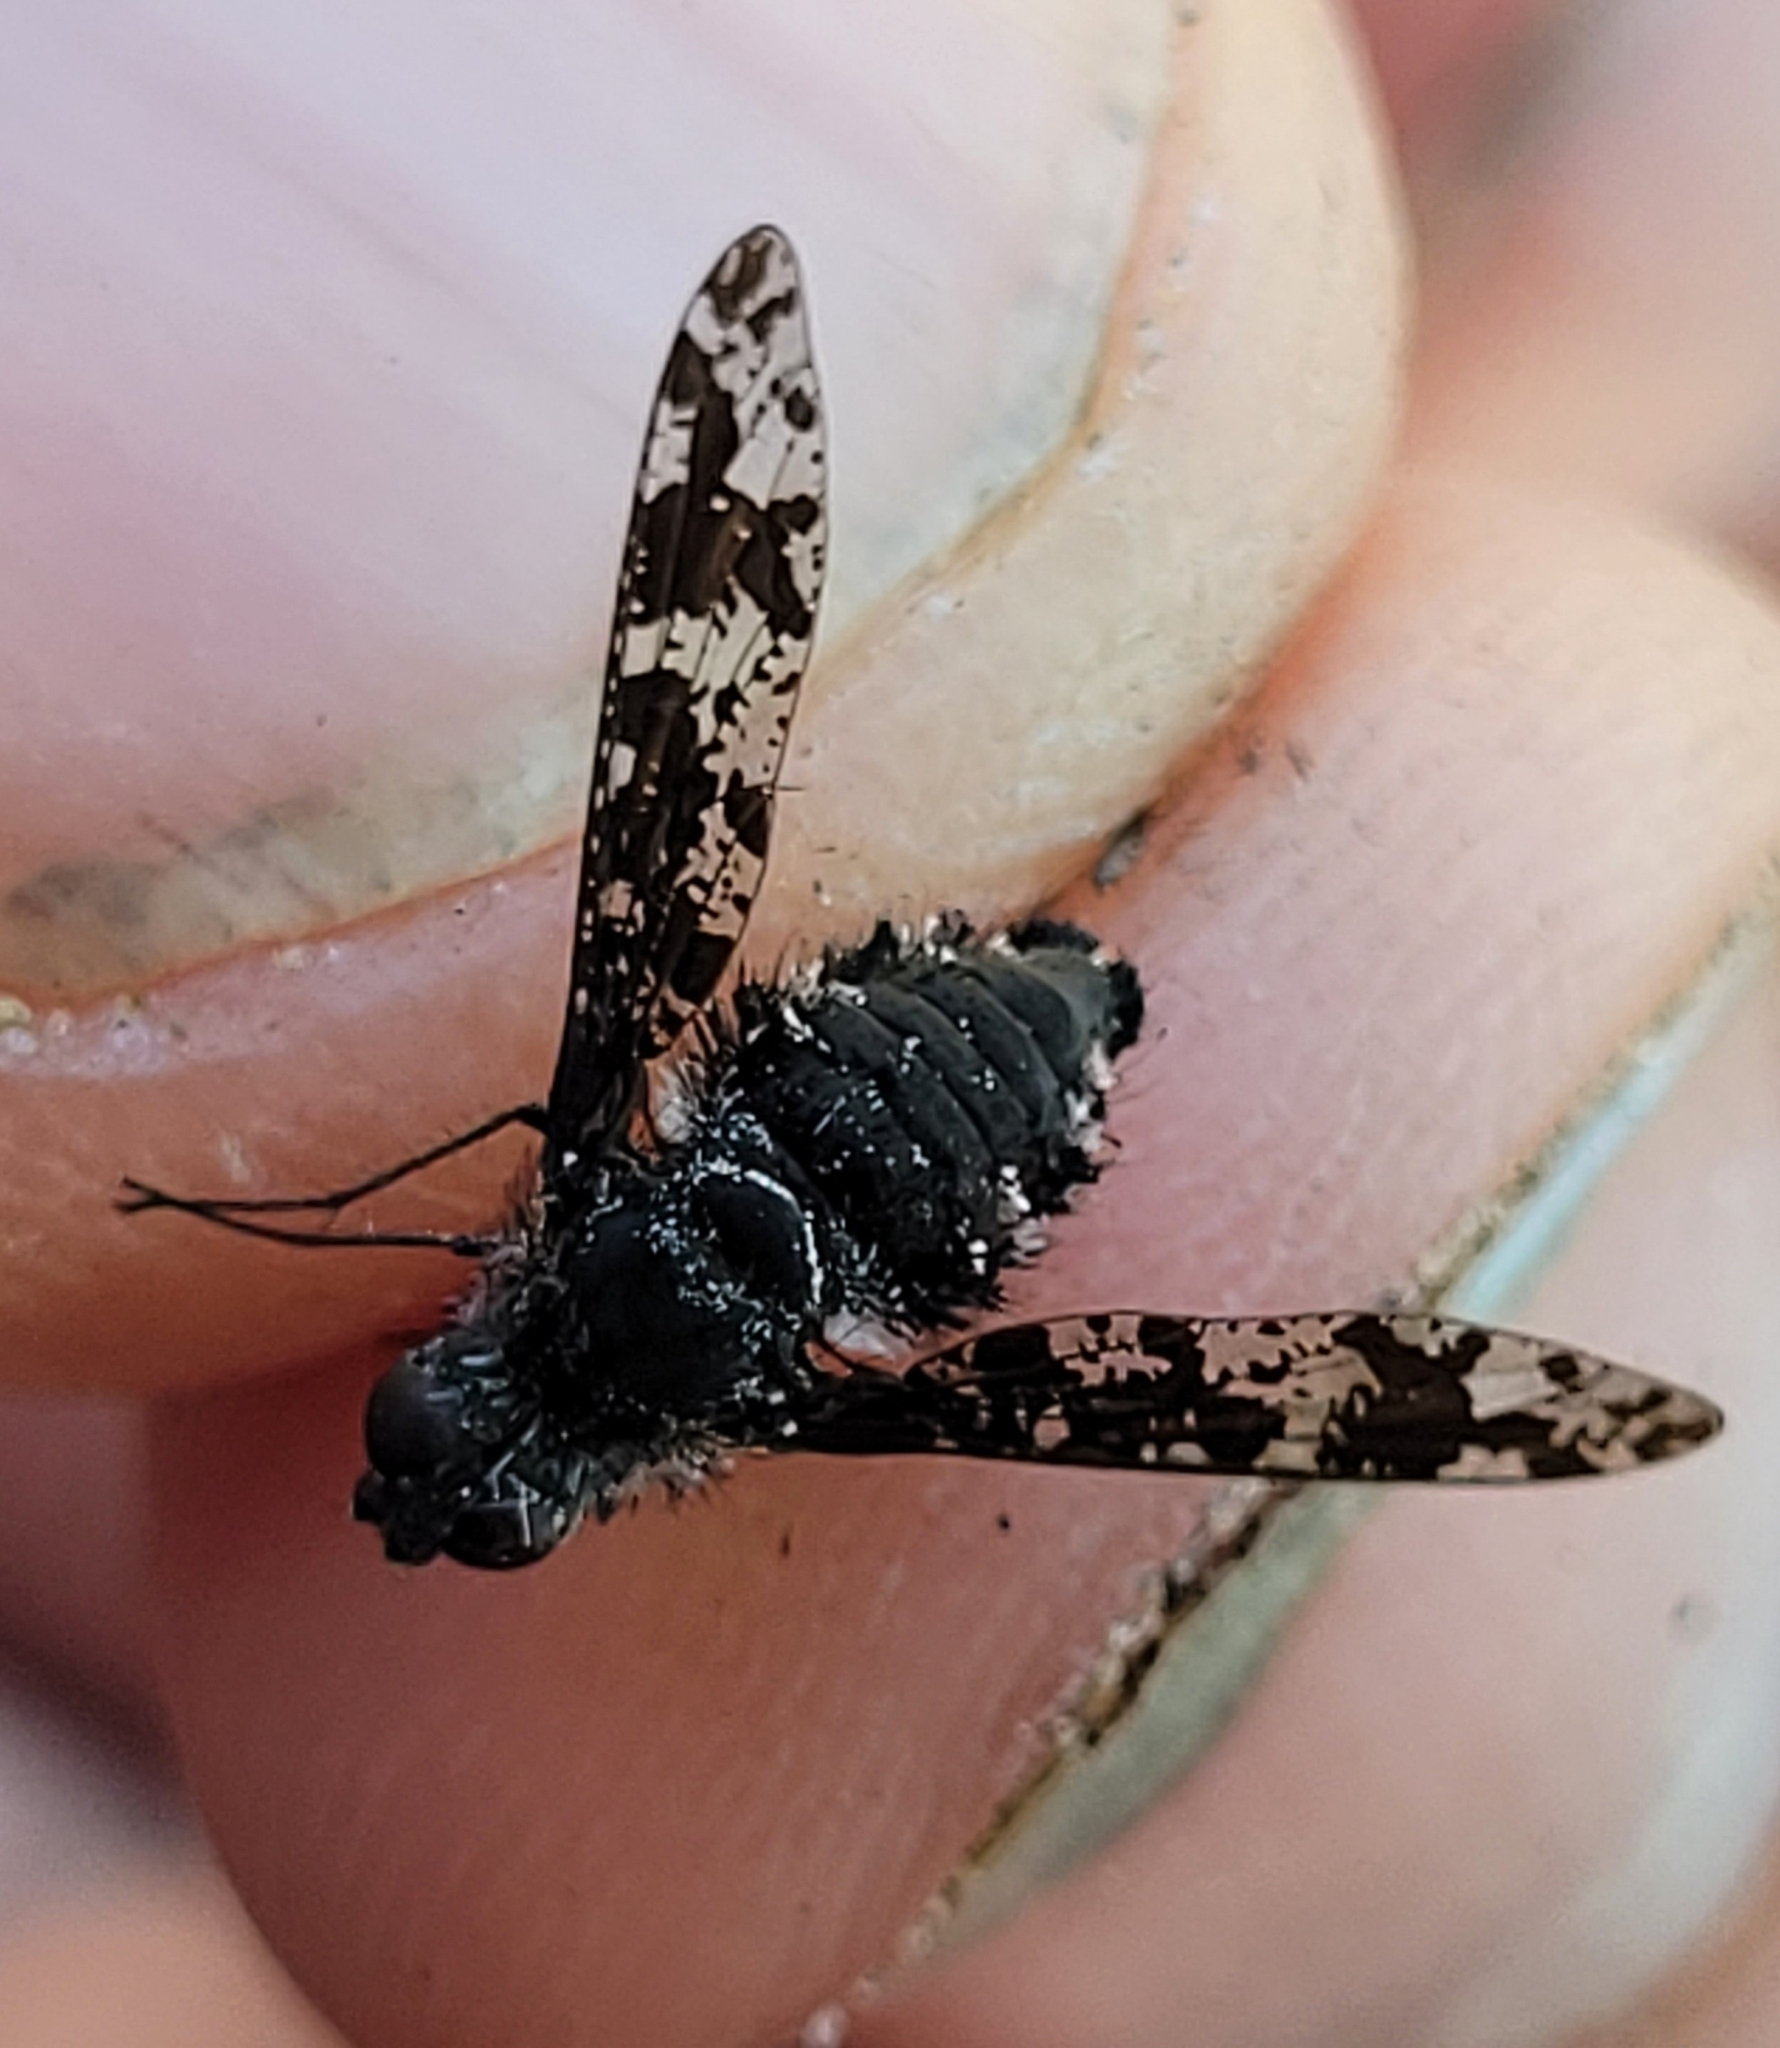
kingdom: Animalia
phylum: Arthropoda
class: Insecta
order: Diptera
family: Bombyliidae
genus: Anthrax
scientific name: Anthrax irroratus
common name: Spotted bee fly
